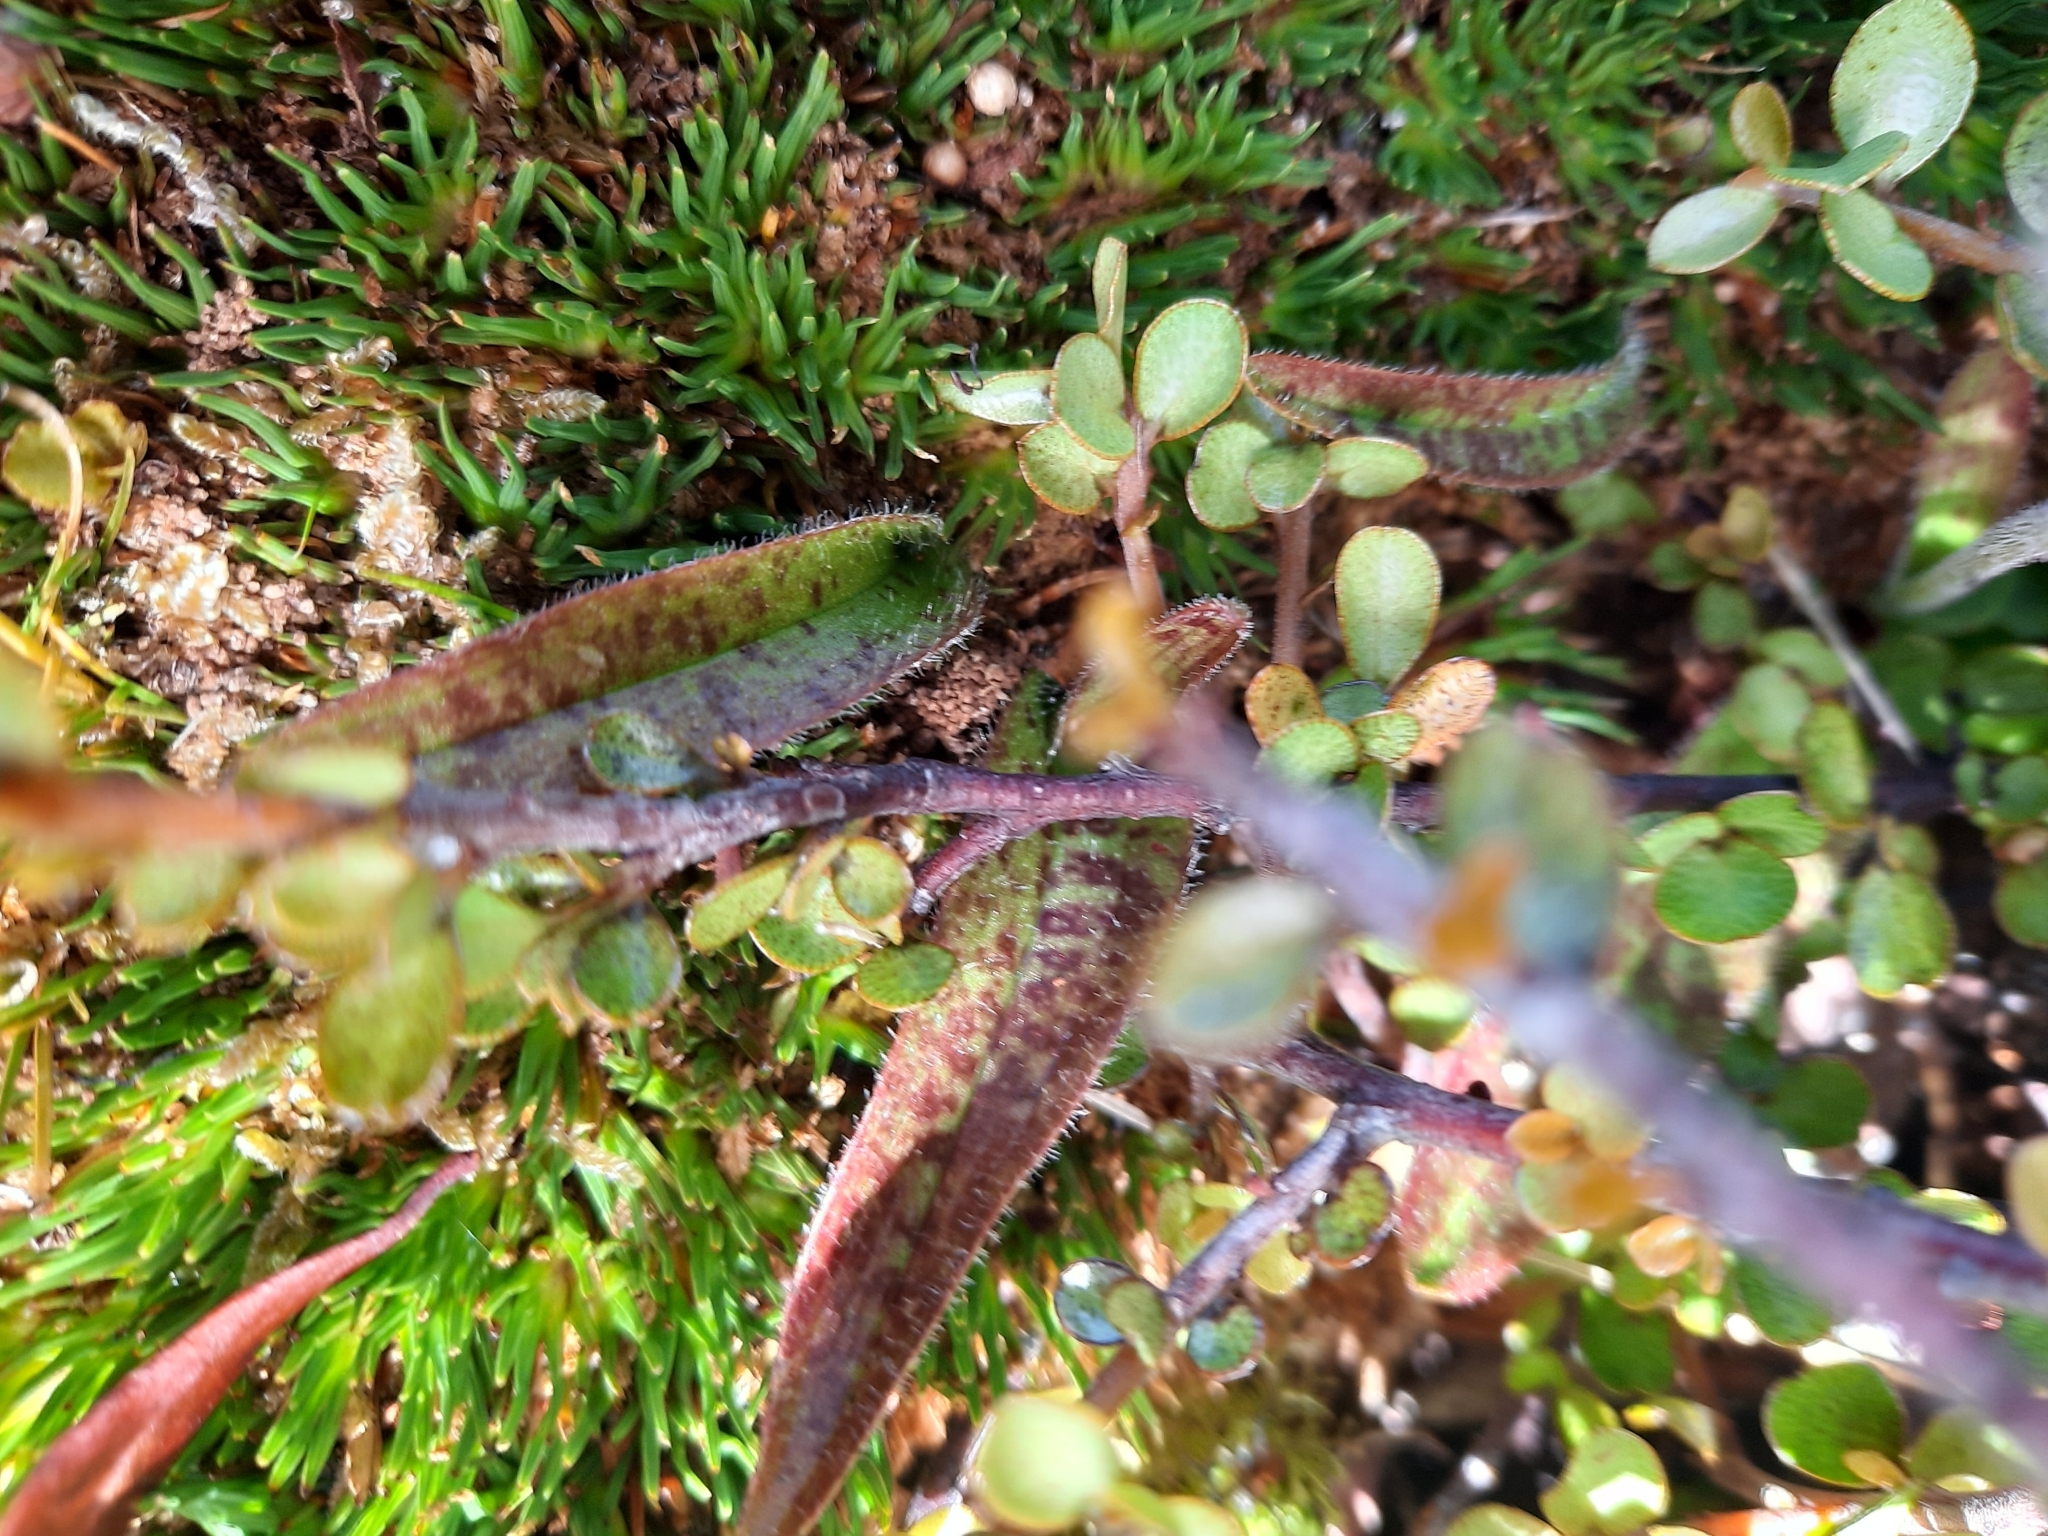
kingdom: Plantae
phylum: Tracheophyta
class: Liliopsida
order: Asparagales
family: Orchidaceae
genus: Aporostylis
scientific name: Aporostylis bifolia
